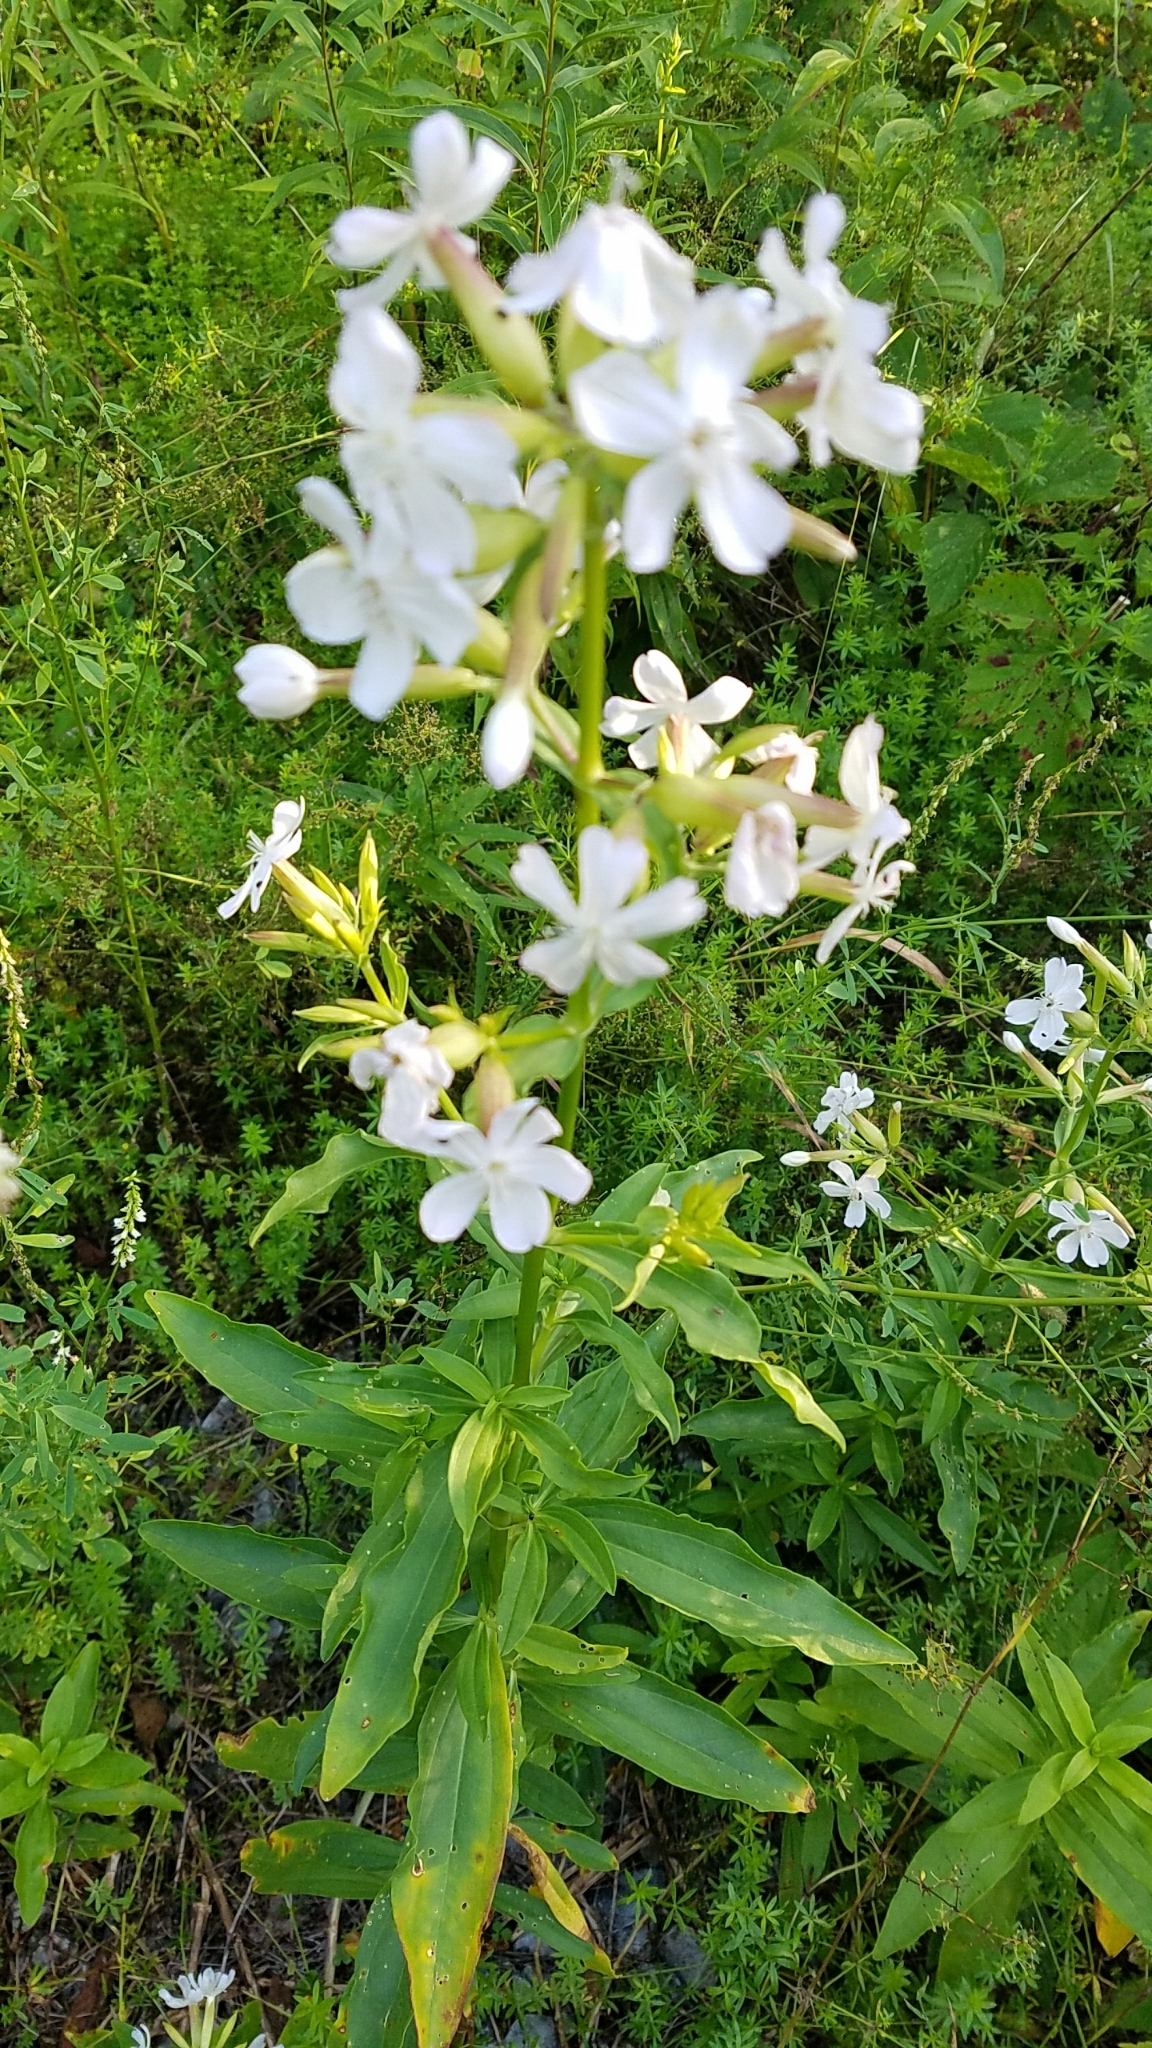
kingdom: Plantae
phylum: Tracheophyta
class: Magnoliopsida
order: Caryophyllales
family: Caryophyllaceae
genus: Saponaria
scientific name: Saponaria officinalis
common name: Soapwort
